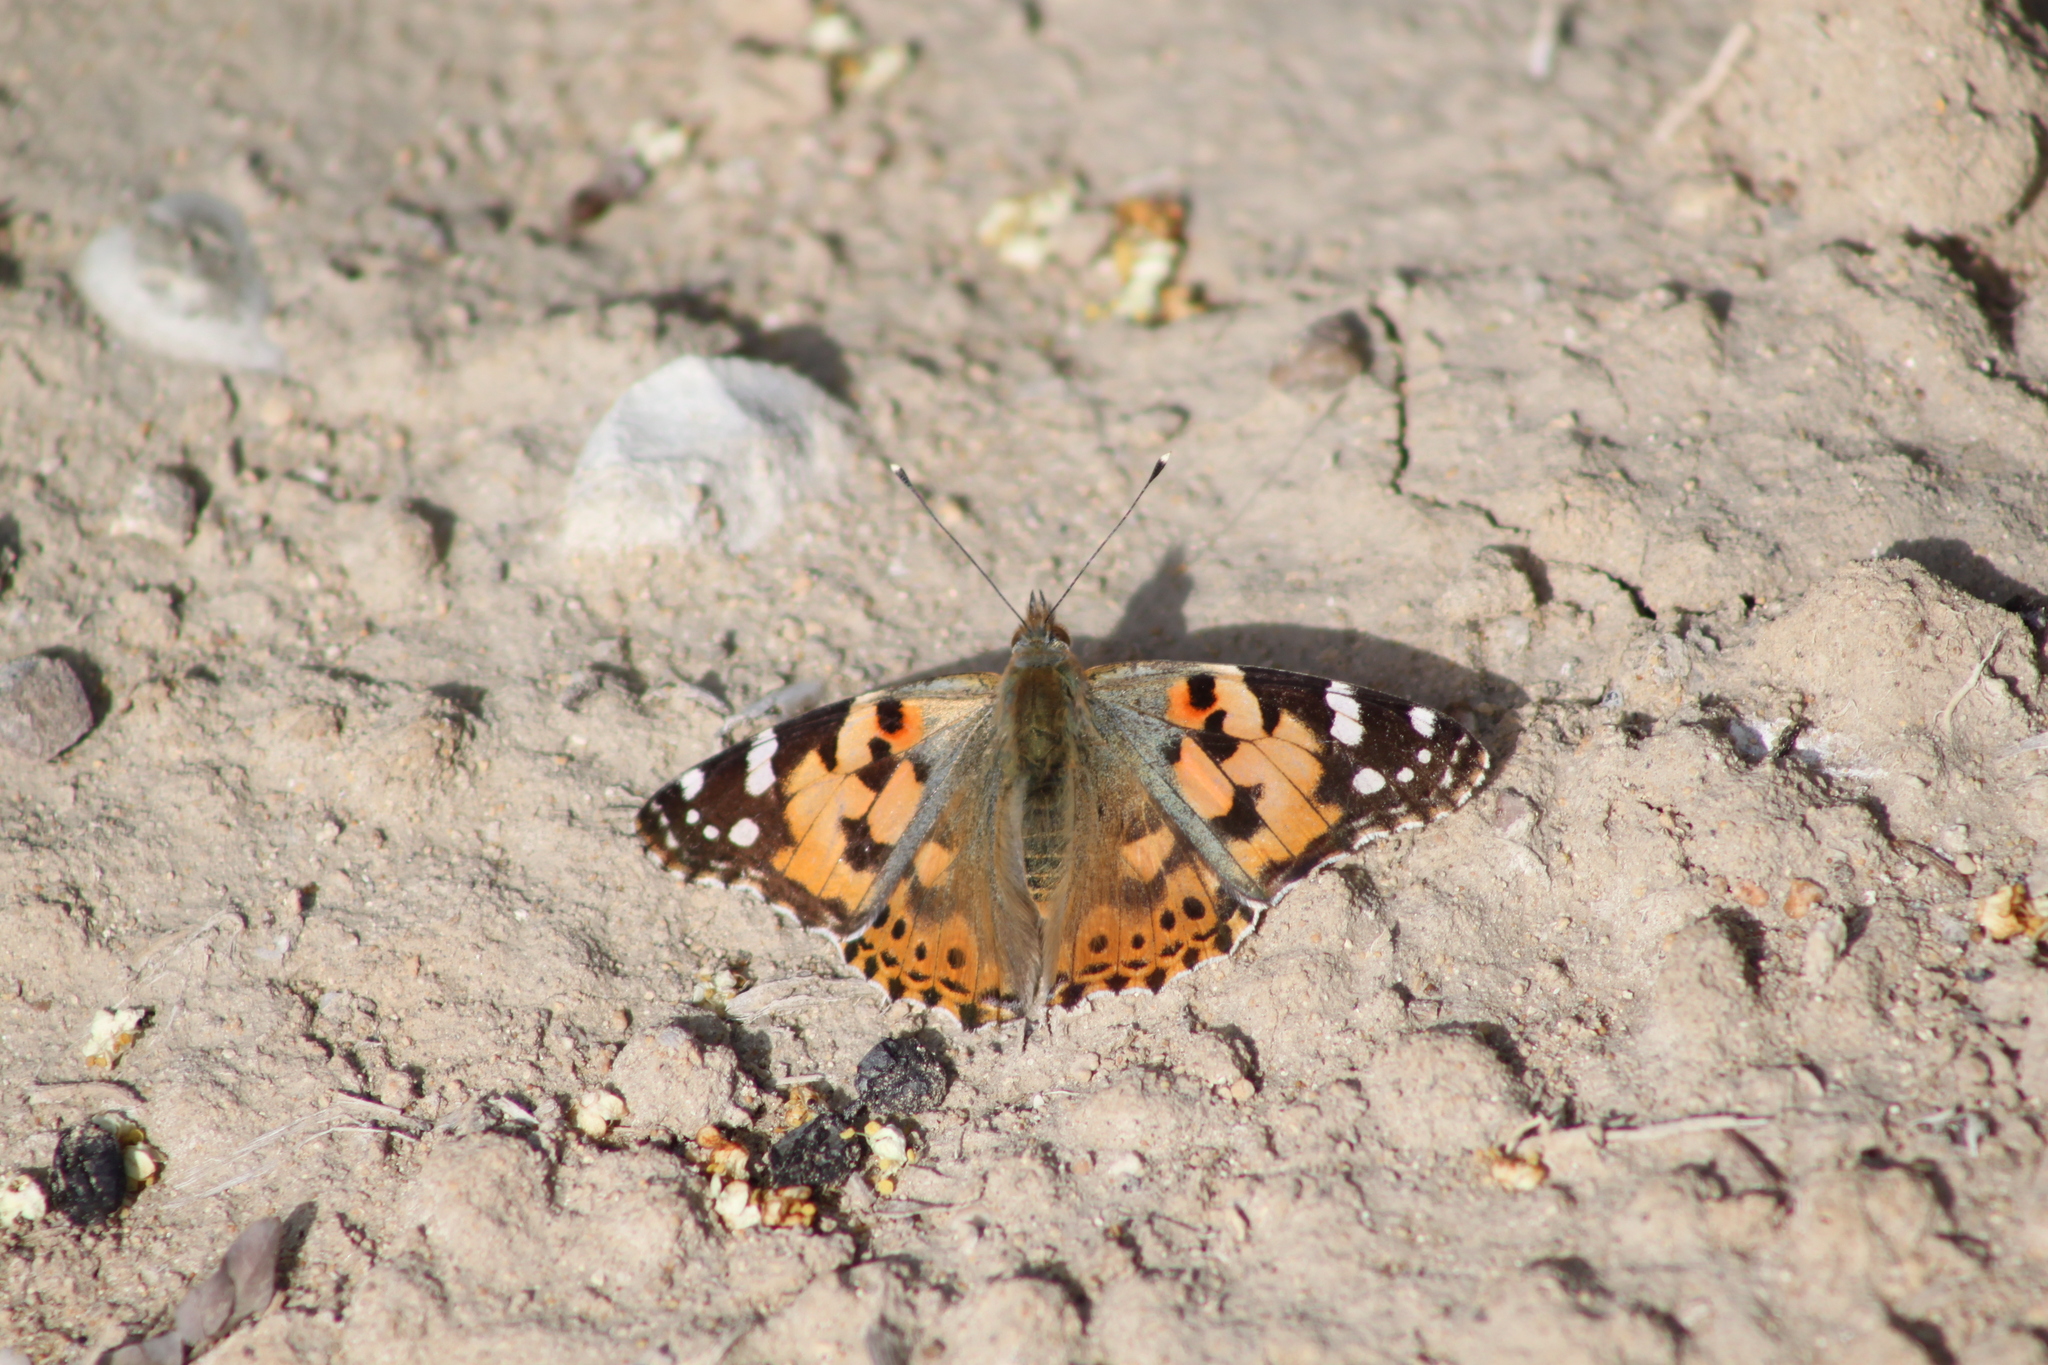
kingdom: Animalia
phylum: Arthropoda
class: Insecta
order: Lepidoptera
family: Nymphalidae
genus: Vanessa
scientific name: Vanessa cardui
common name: Painted lady
